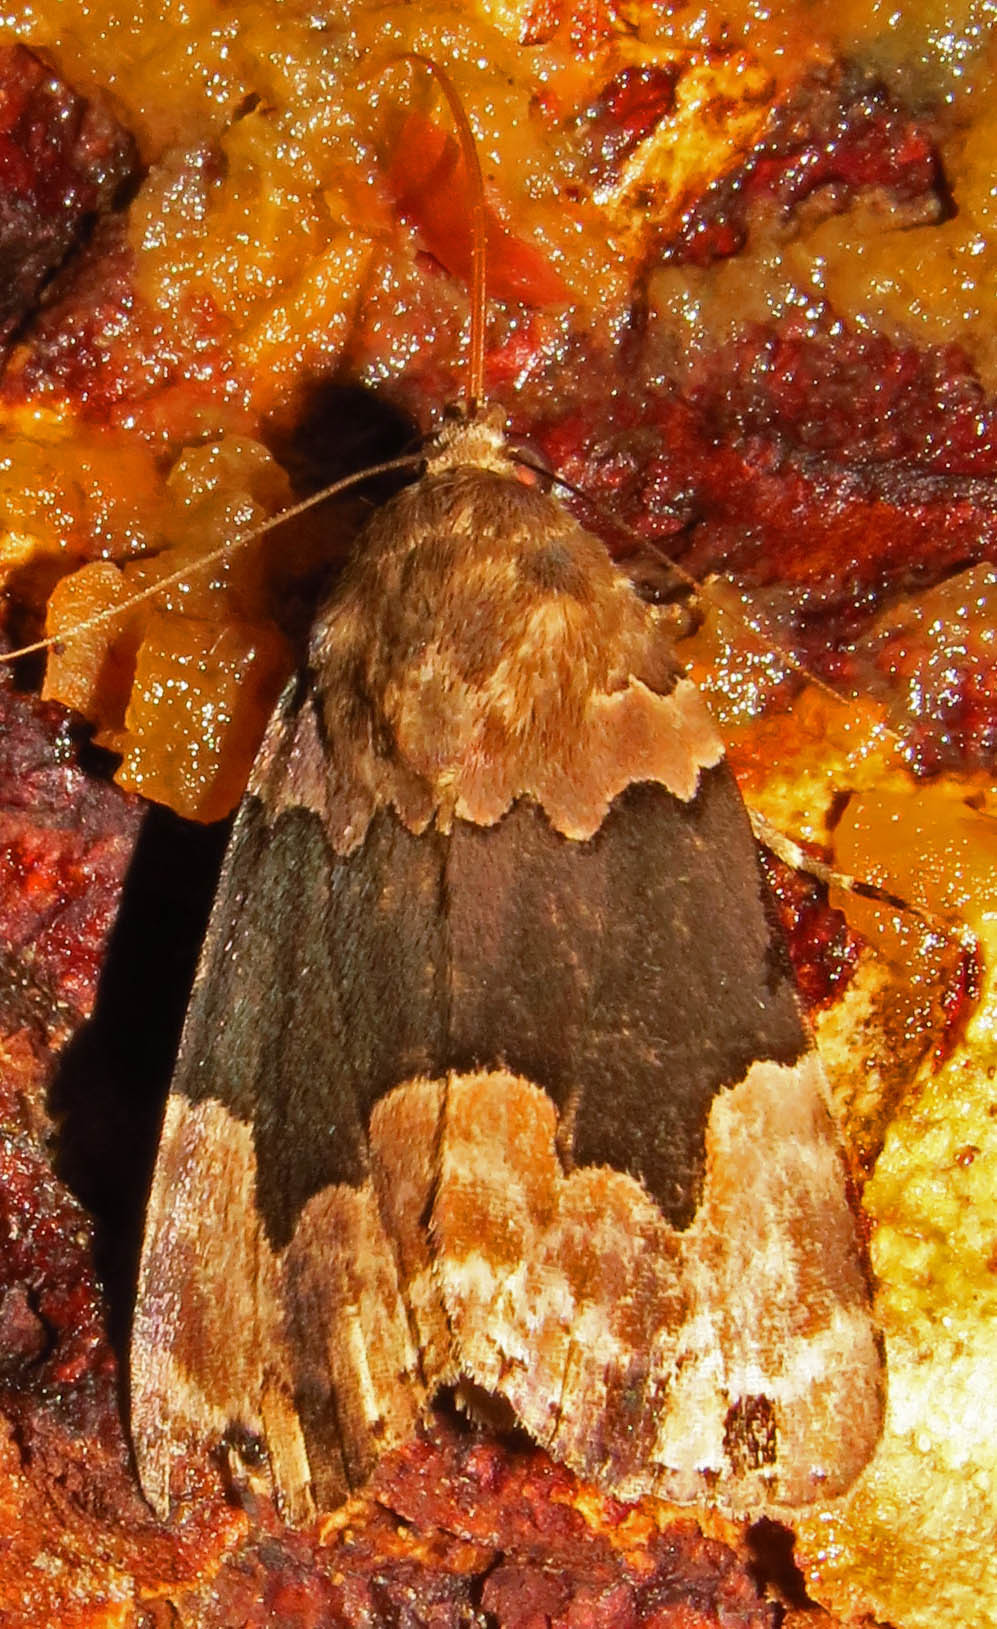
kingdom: Animalia
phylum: Arthropoda
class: Insecta
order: Lepidoptera
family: Erebidae
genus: Dinumma
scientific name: Dinumma deponens
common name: Purplish moth
